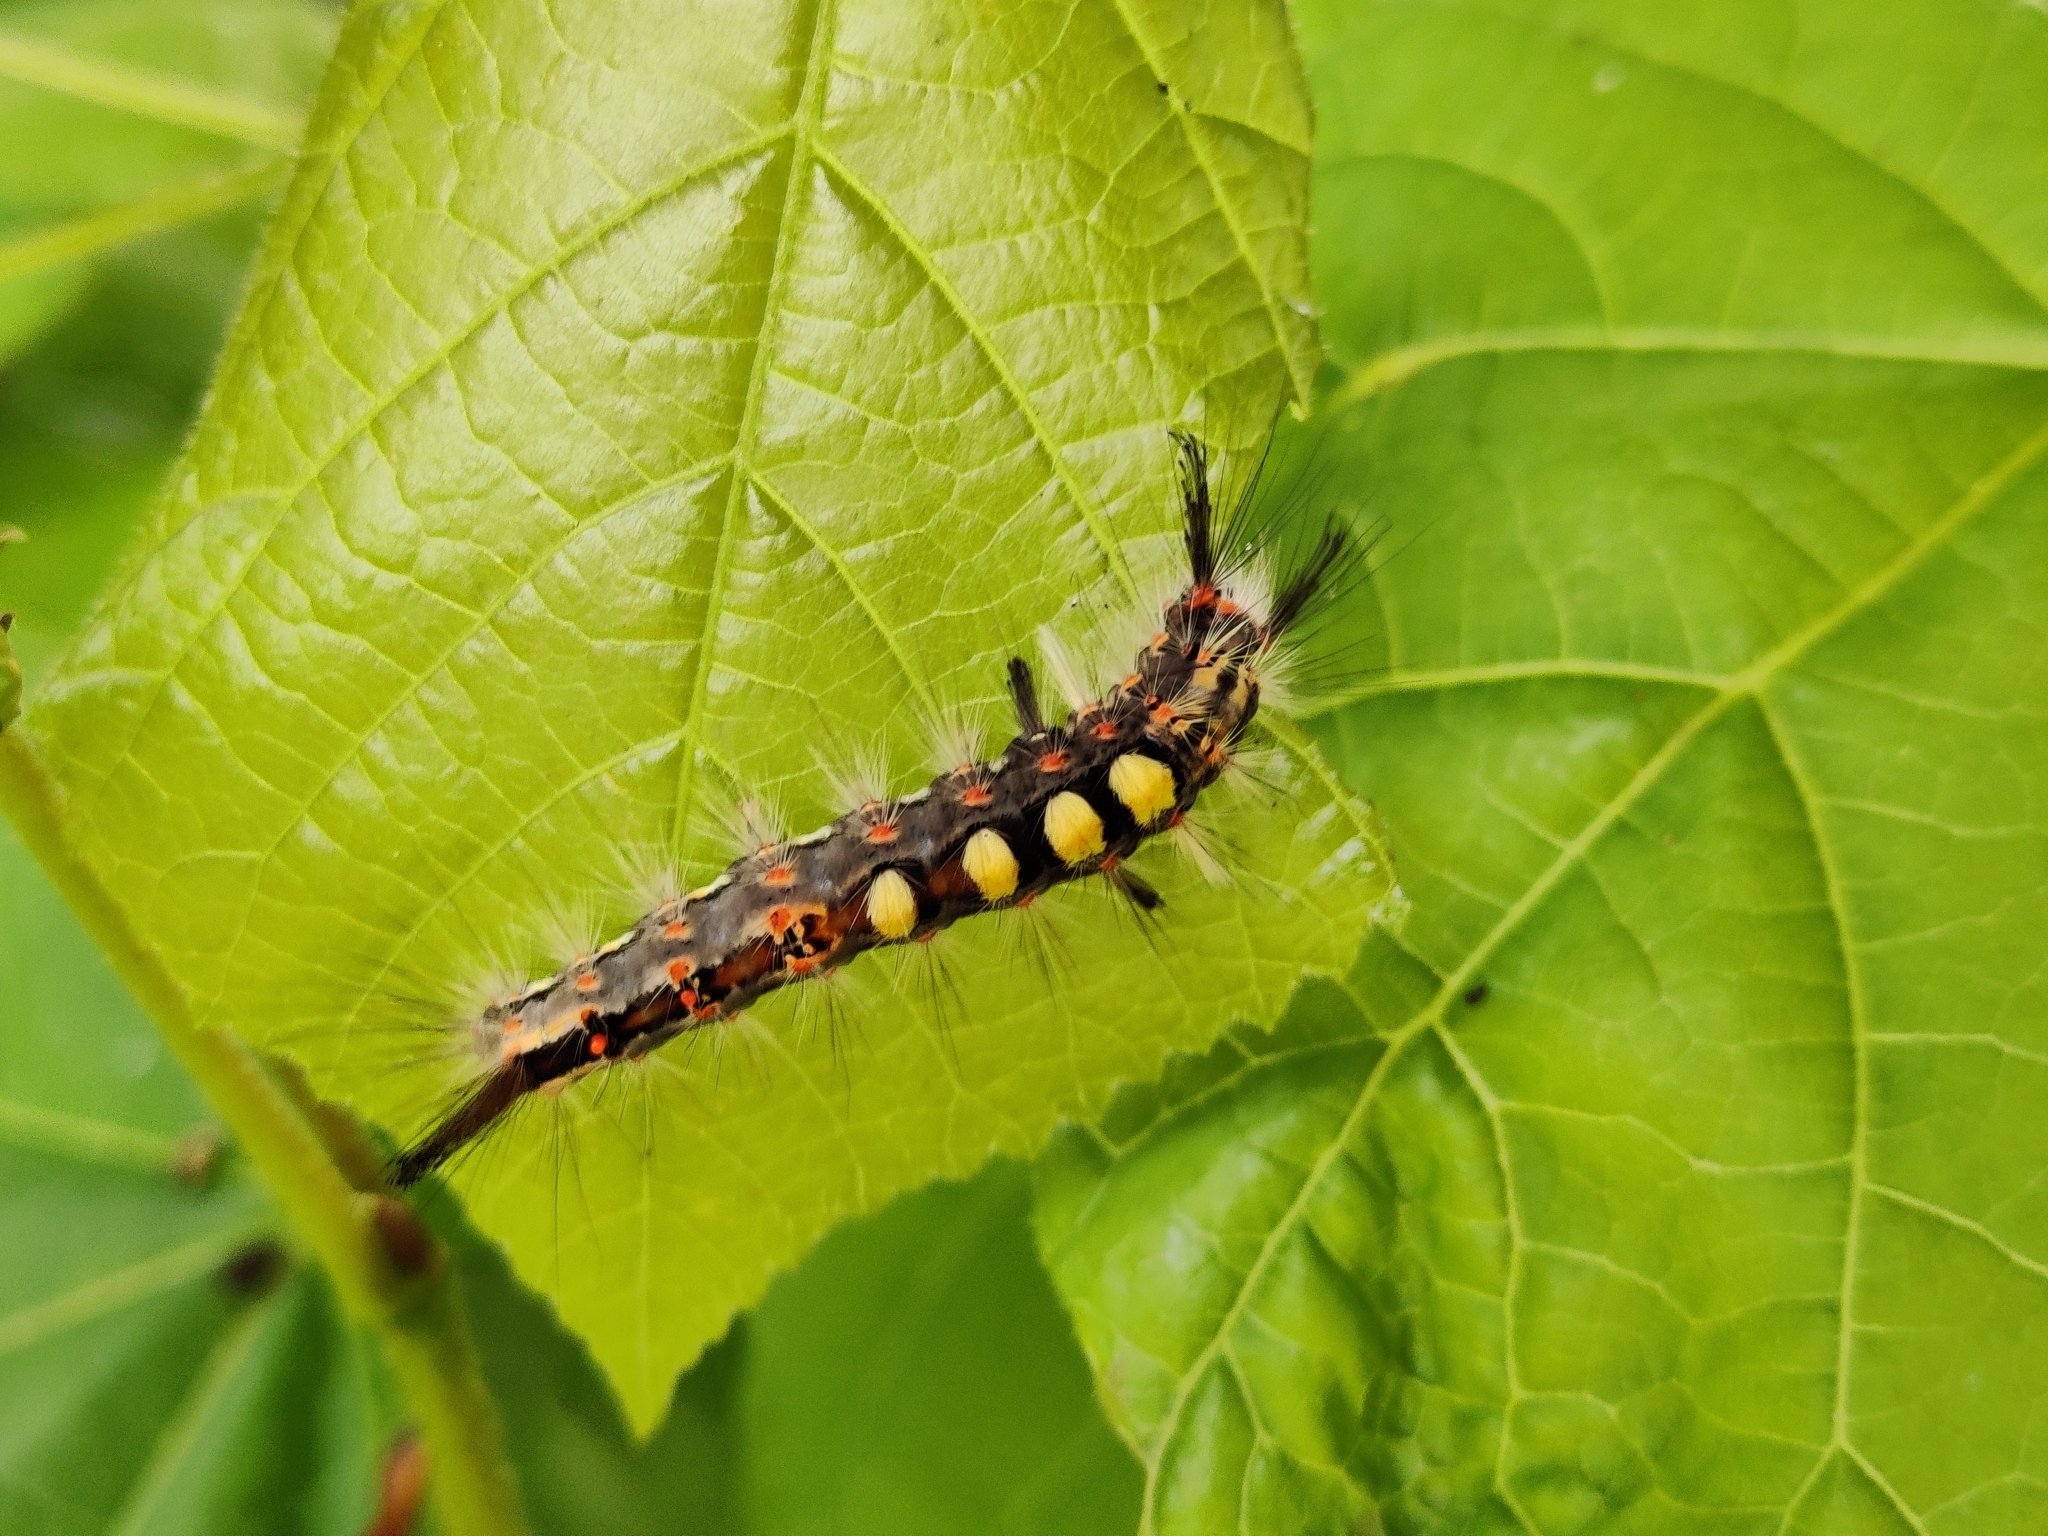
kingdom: Animalia
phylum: Arthropoda
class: Insecta
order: Lepidoptera
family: Erebidae
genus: Orgyia
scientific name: Orgyia antiqua
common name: Vapourer
